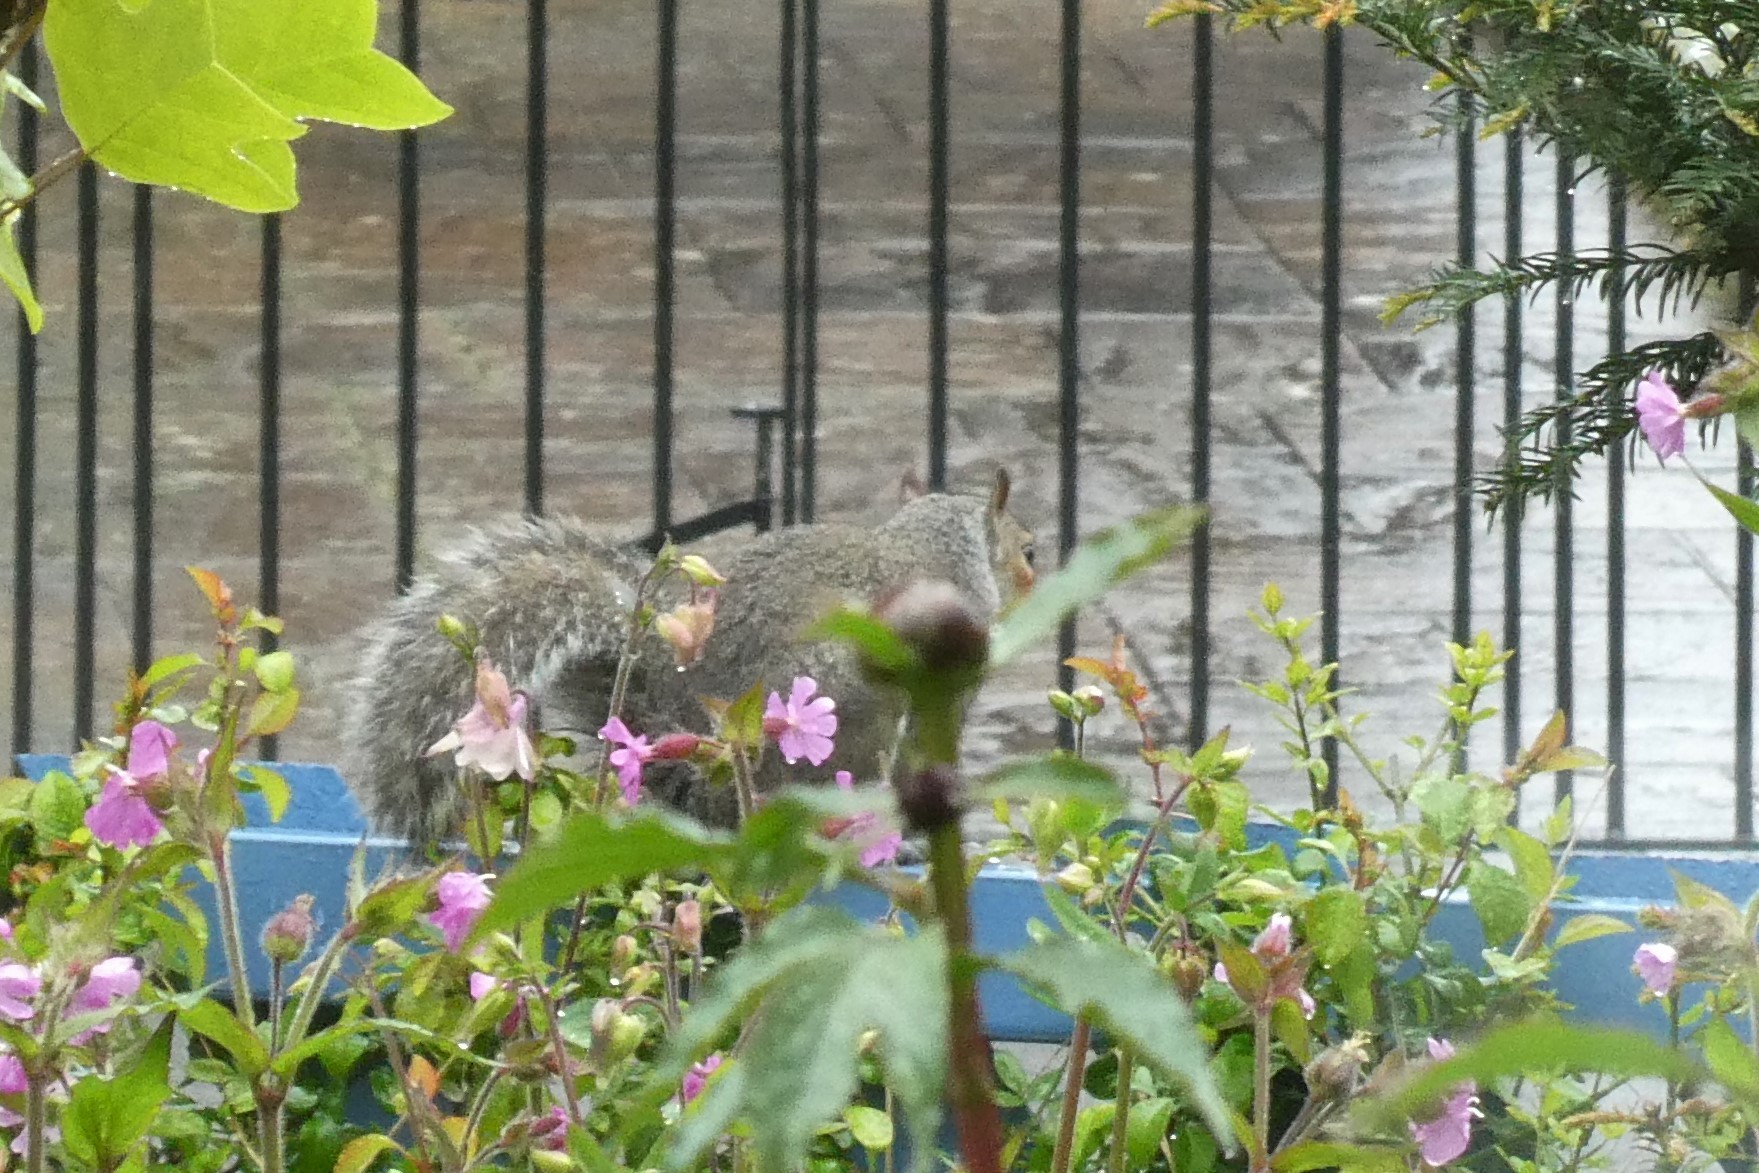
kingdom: Animalia
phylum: Chordata
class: Mammalia
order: Rodentia
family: Sciuridae
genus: Sciurus
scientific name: Sciurus carolinensis
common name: Eastern gray squirrel
